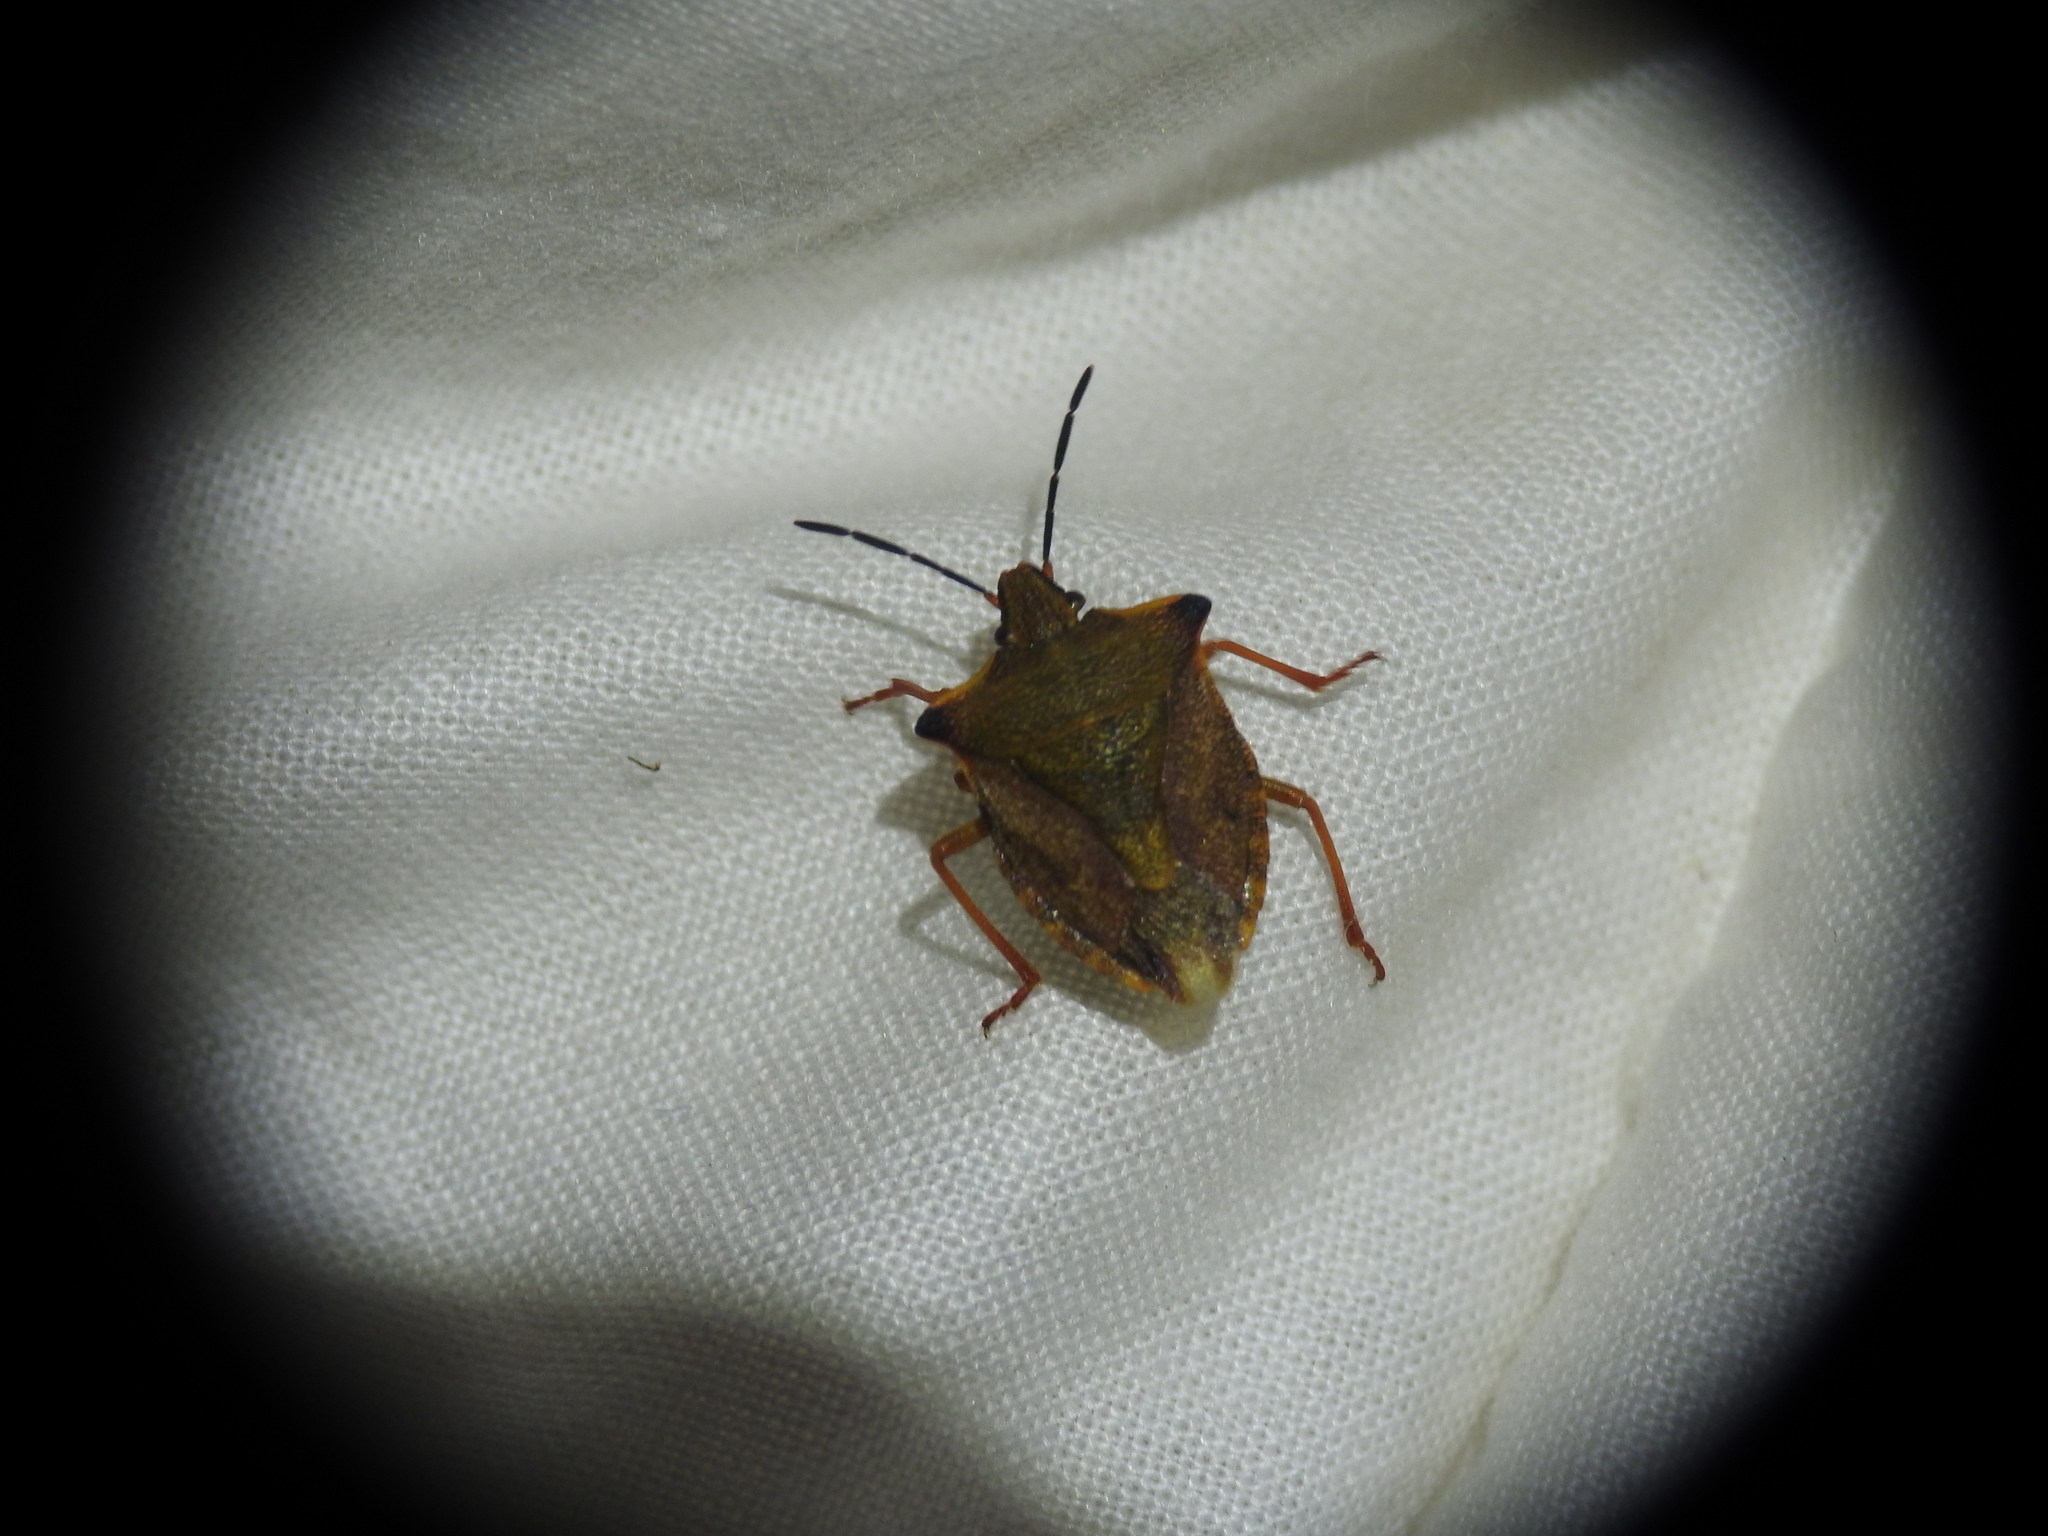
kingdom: Animalia
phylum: Arthropoda
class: Insecta
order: Hemiptera
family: Pentatomidae
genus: Carpocoris
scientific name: Carpocoris mediterraneus
